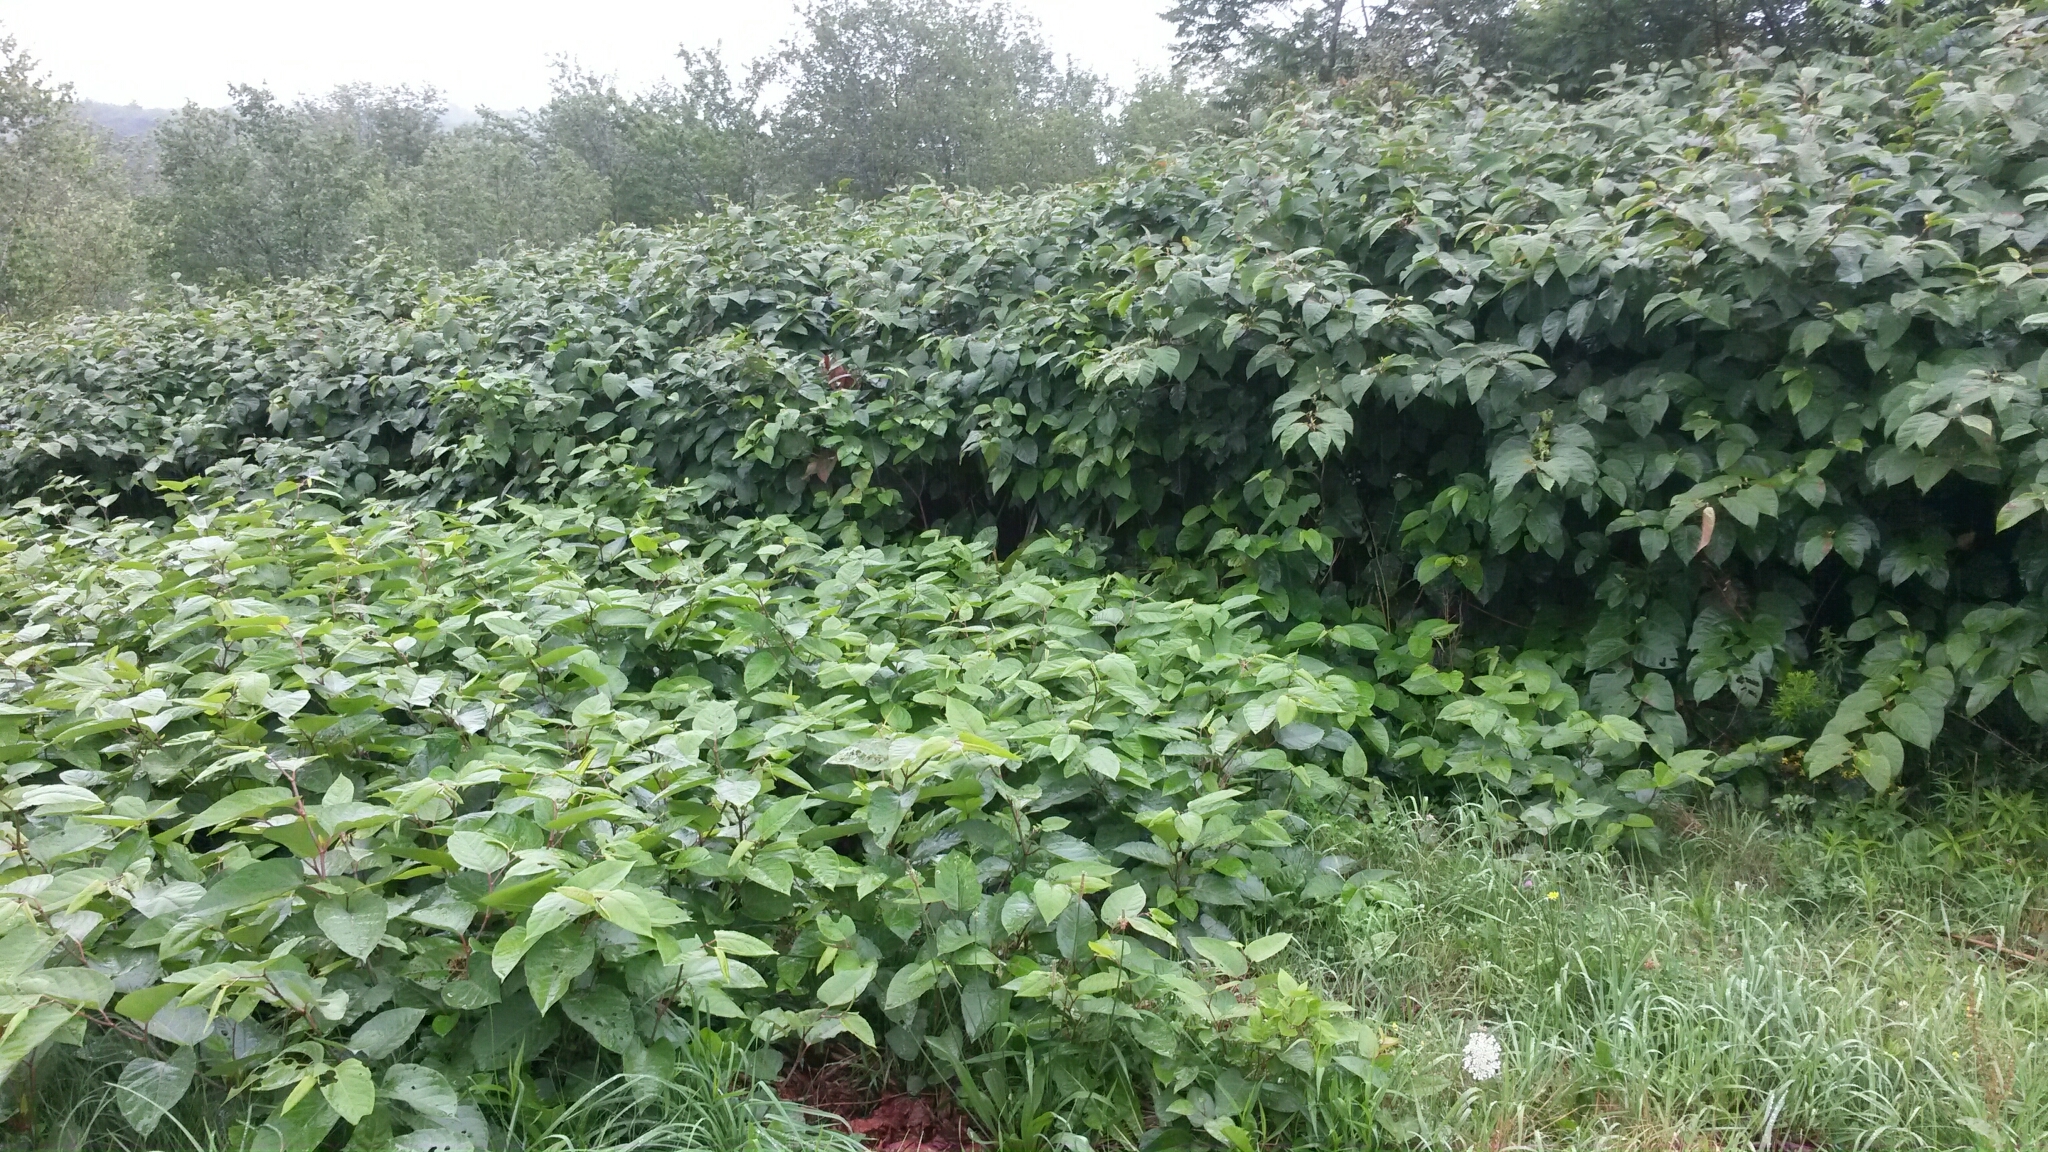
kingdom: Plantae
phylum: Tracheophyta
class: Magnoliopsida
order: Caryophyllales
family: Polygonaceae
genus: Reynoutria
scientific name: Reynoutria japonica
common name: Japanese knotweed
